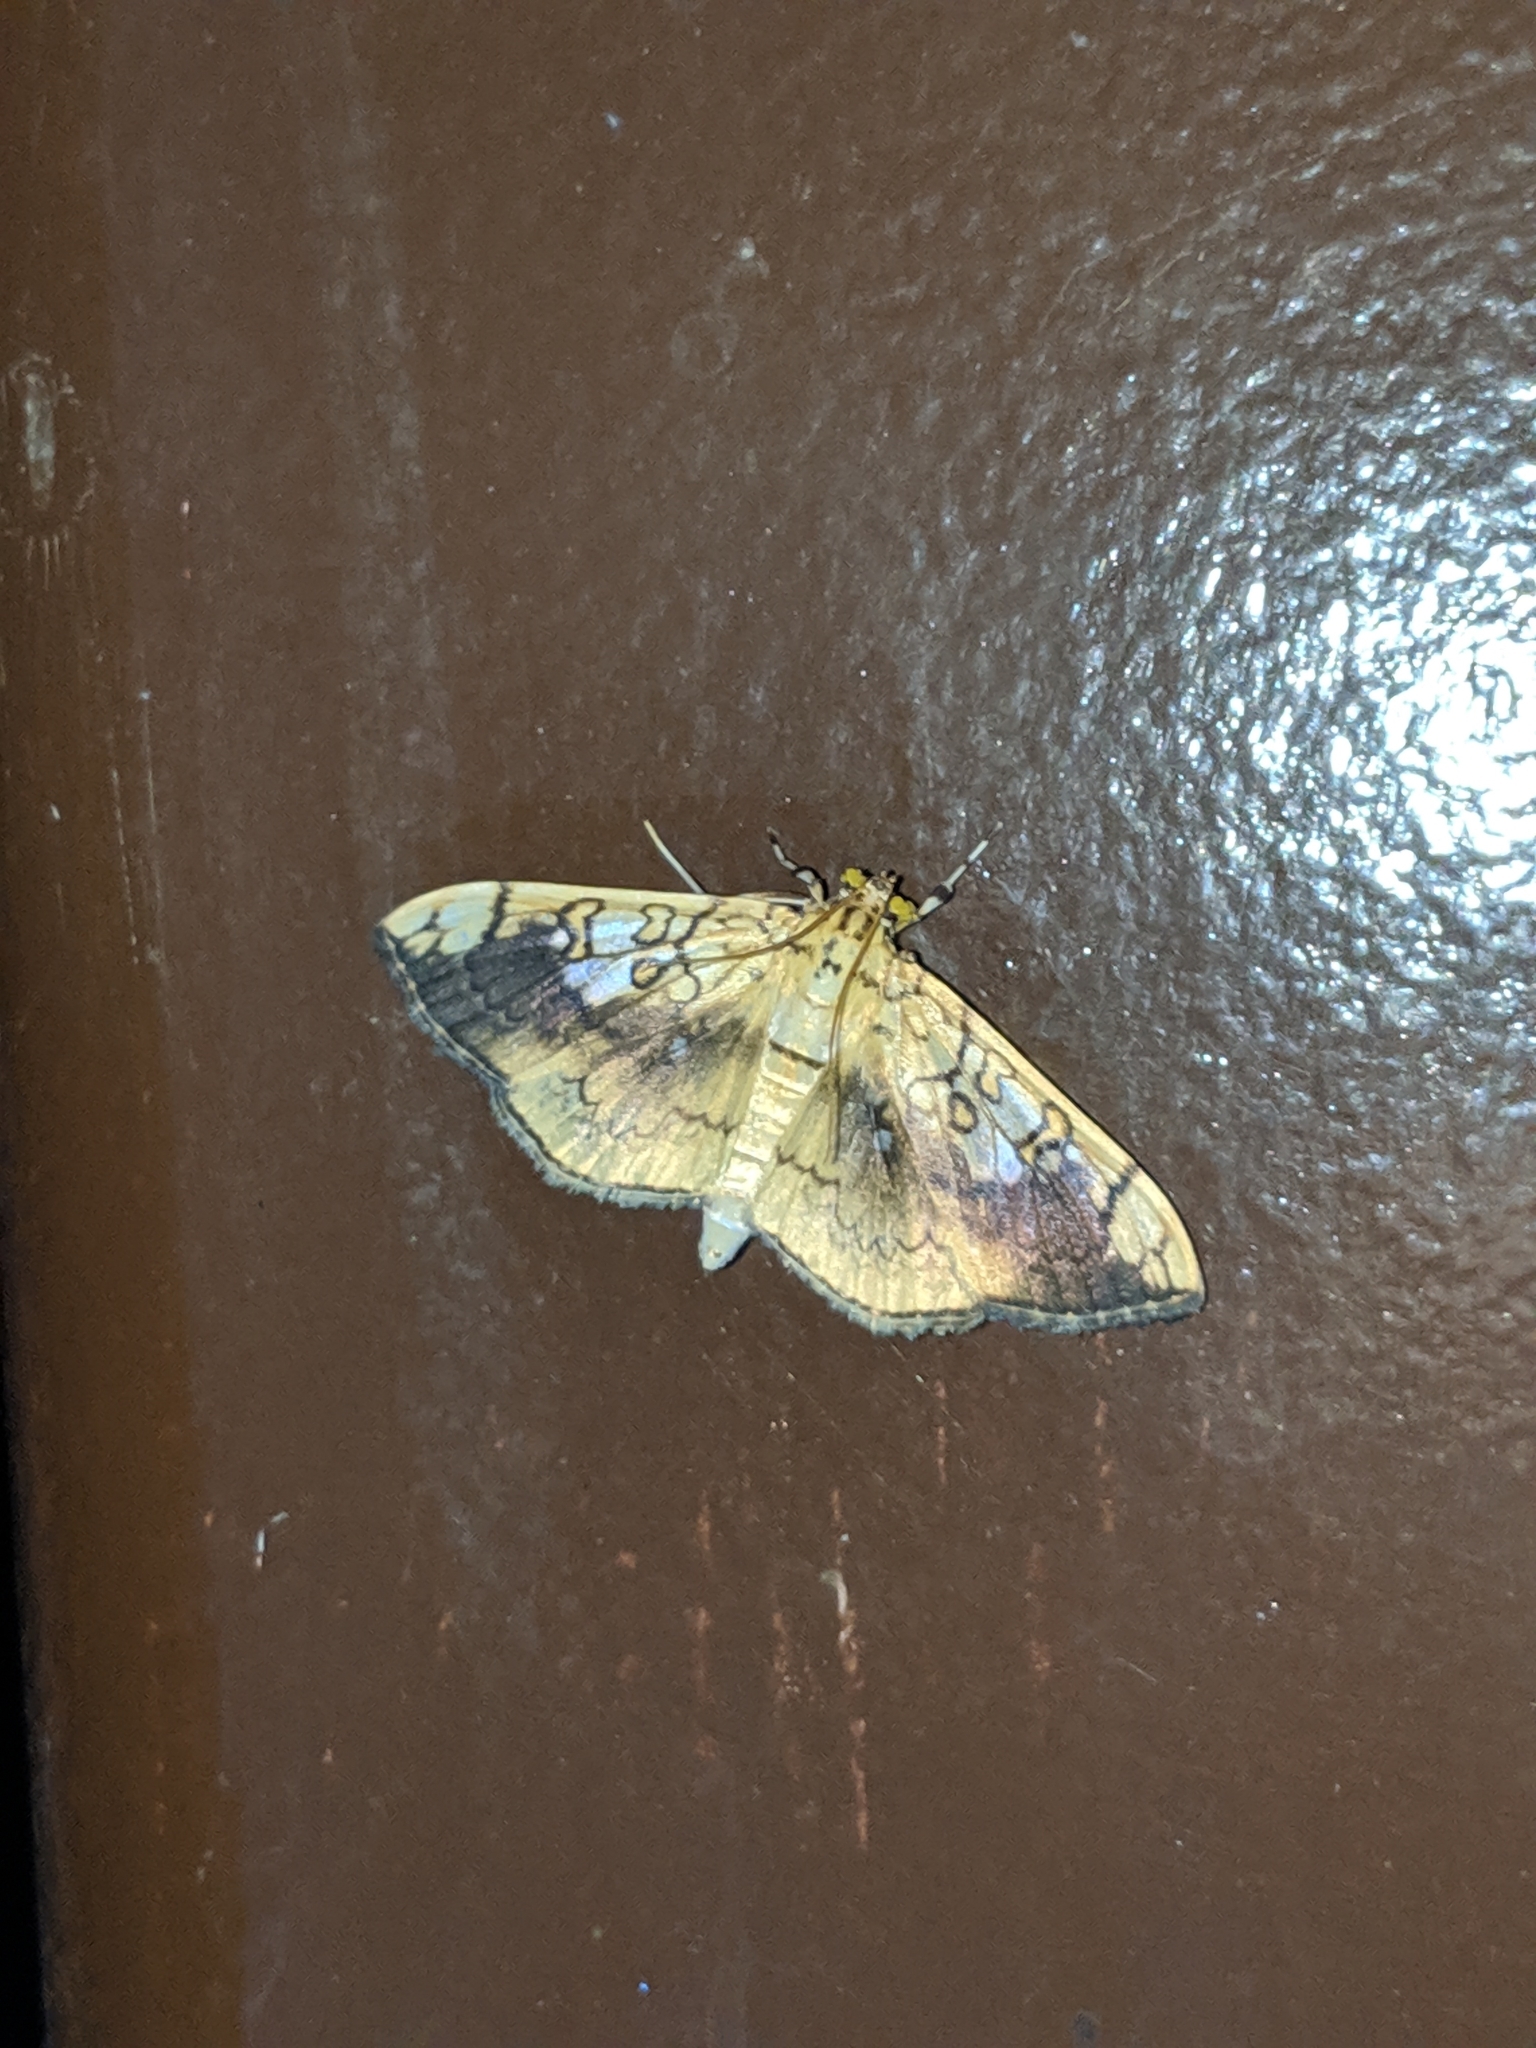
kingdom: Animalia
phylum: Arthropoda
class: Insecta
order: Lepidoptera
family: Crambidae
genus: Pantographa
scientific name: Pantographa limata
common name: Basswood leafroller moth
